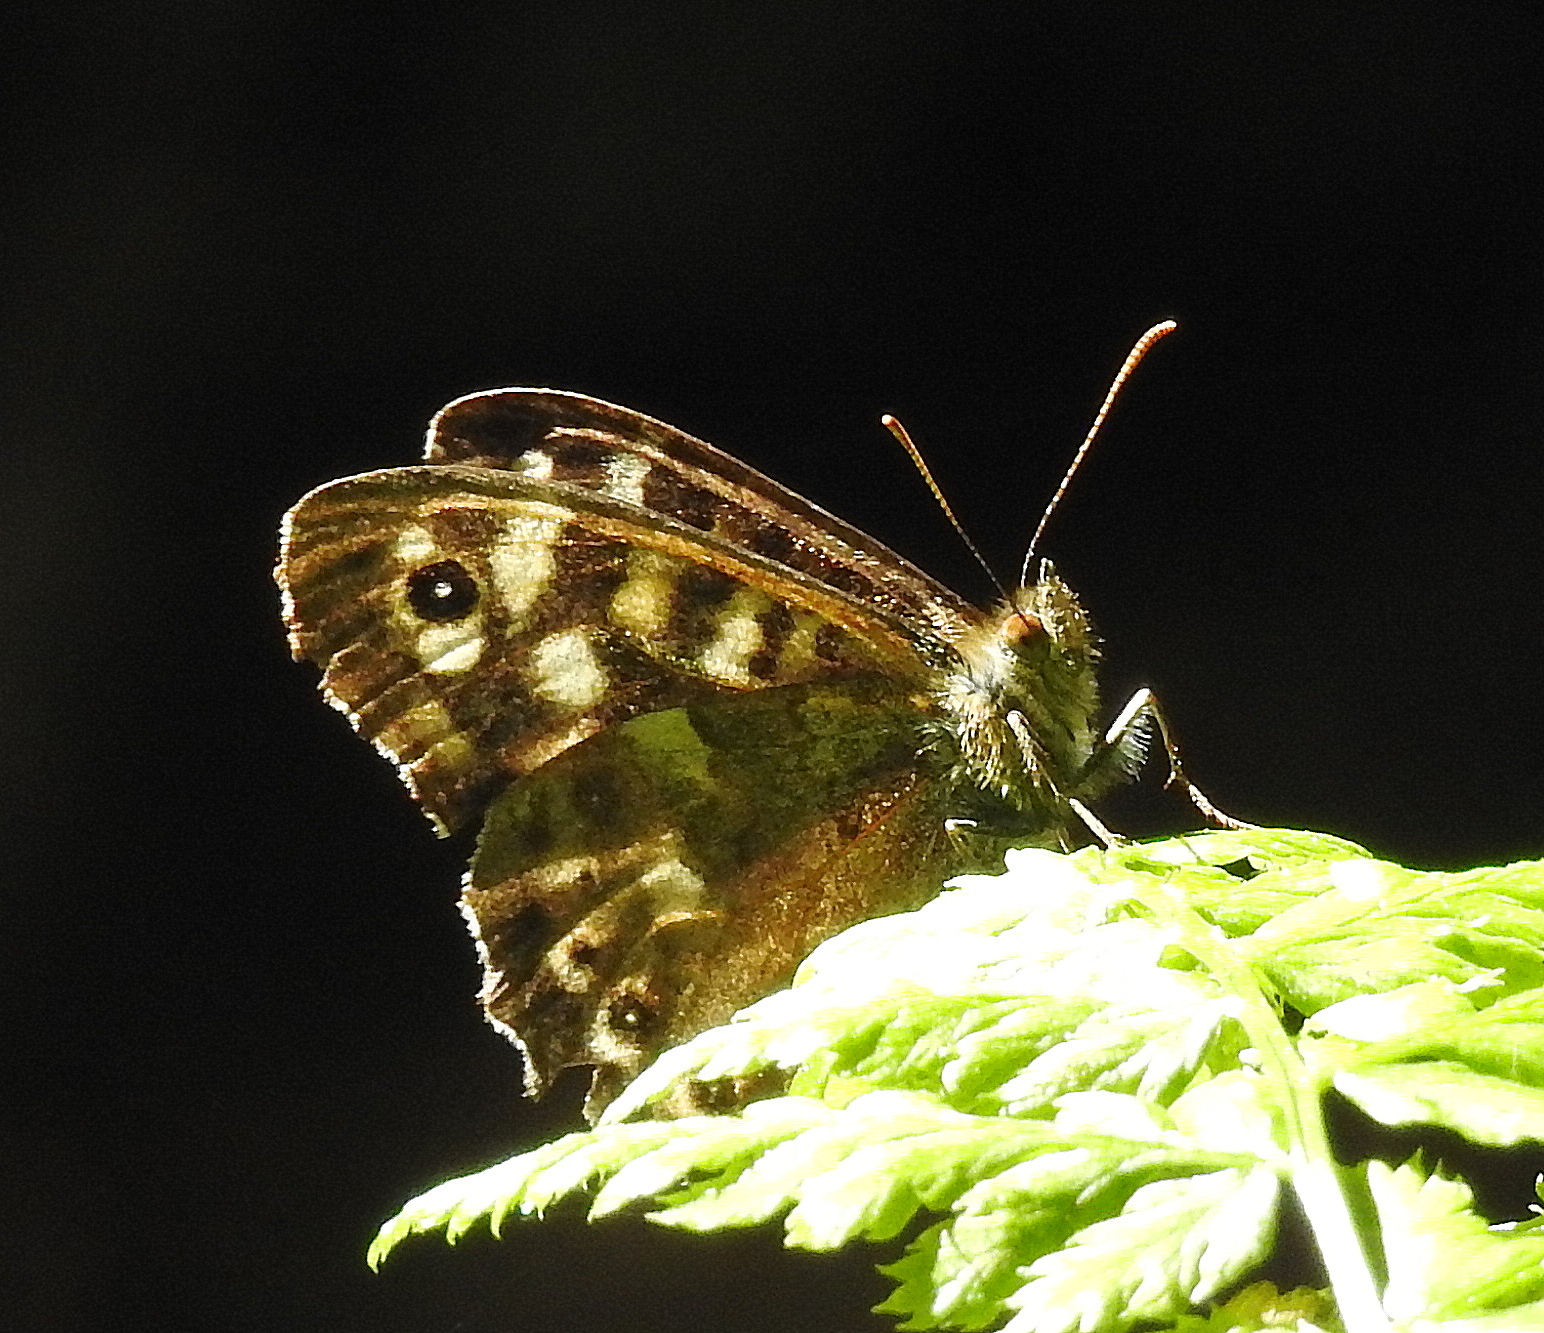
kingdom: Animalia
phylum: Arthropoda
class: Insecta
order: Lepidoptera
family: Nymphalidae
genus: Pararge
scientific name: Pararge aegeria
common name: Speckled wood
